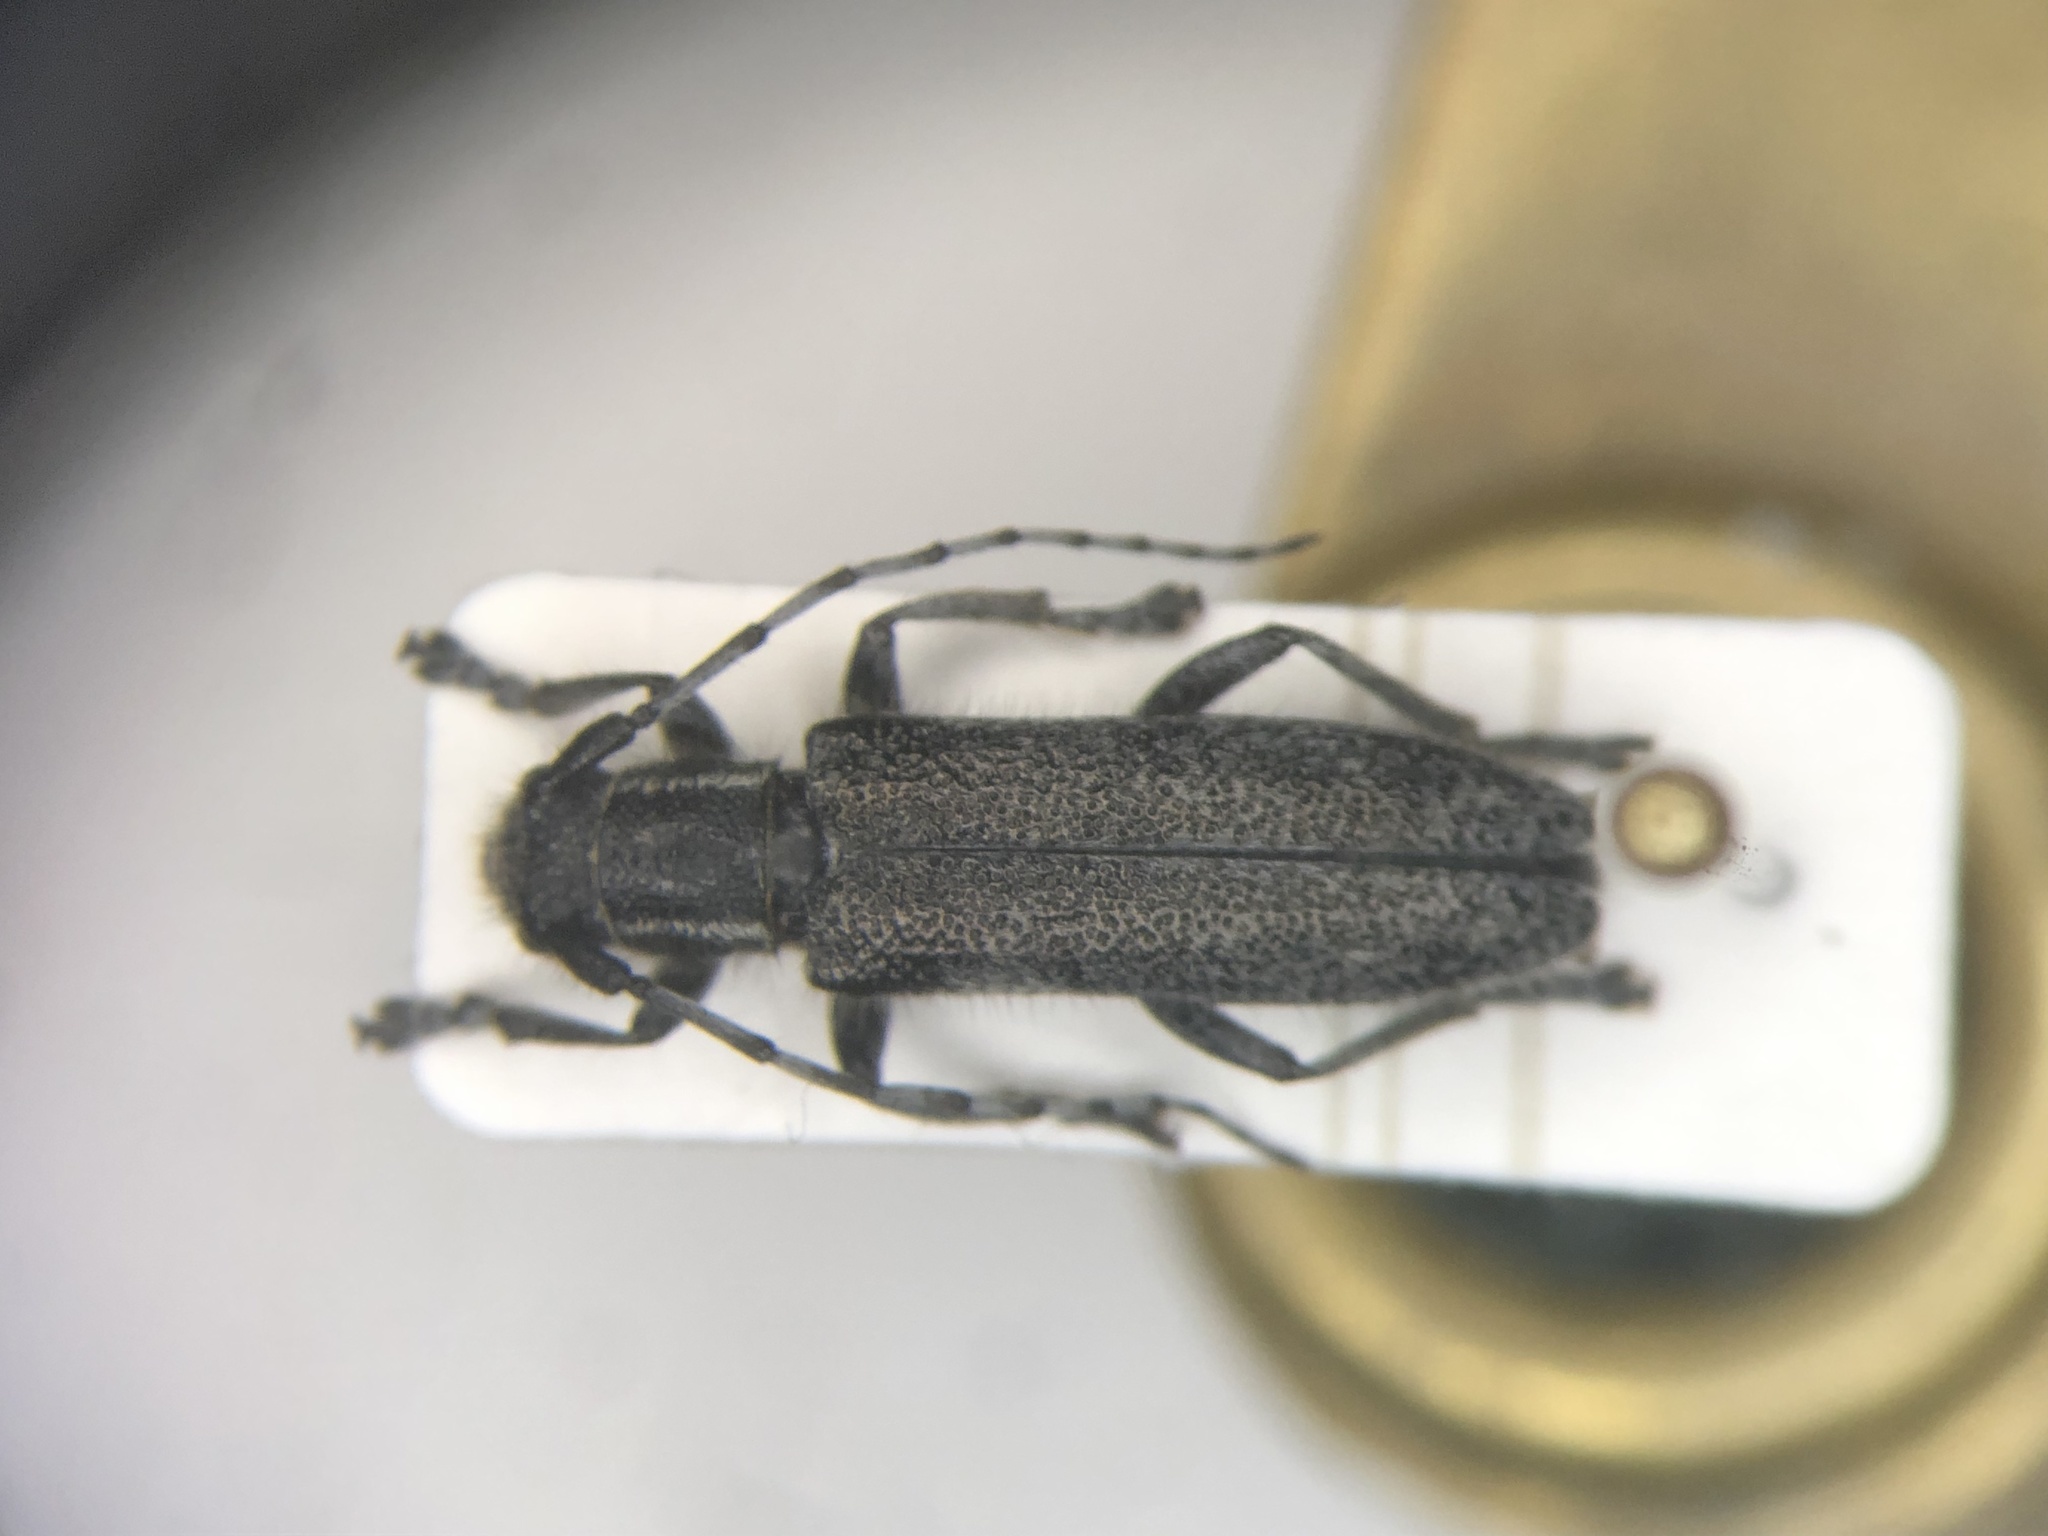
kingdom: Animalia
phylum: Arthropoda
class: Insecta
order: Coleoptera
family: Cerambycidae
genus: Saperda
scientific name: Saperda populnea
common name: Small poplar borer
